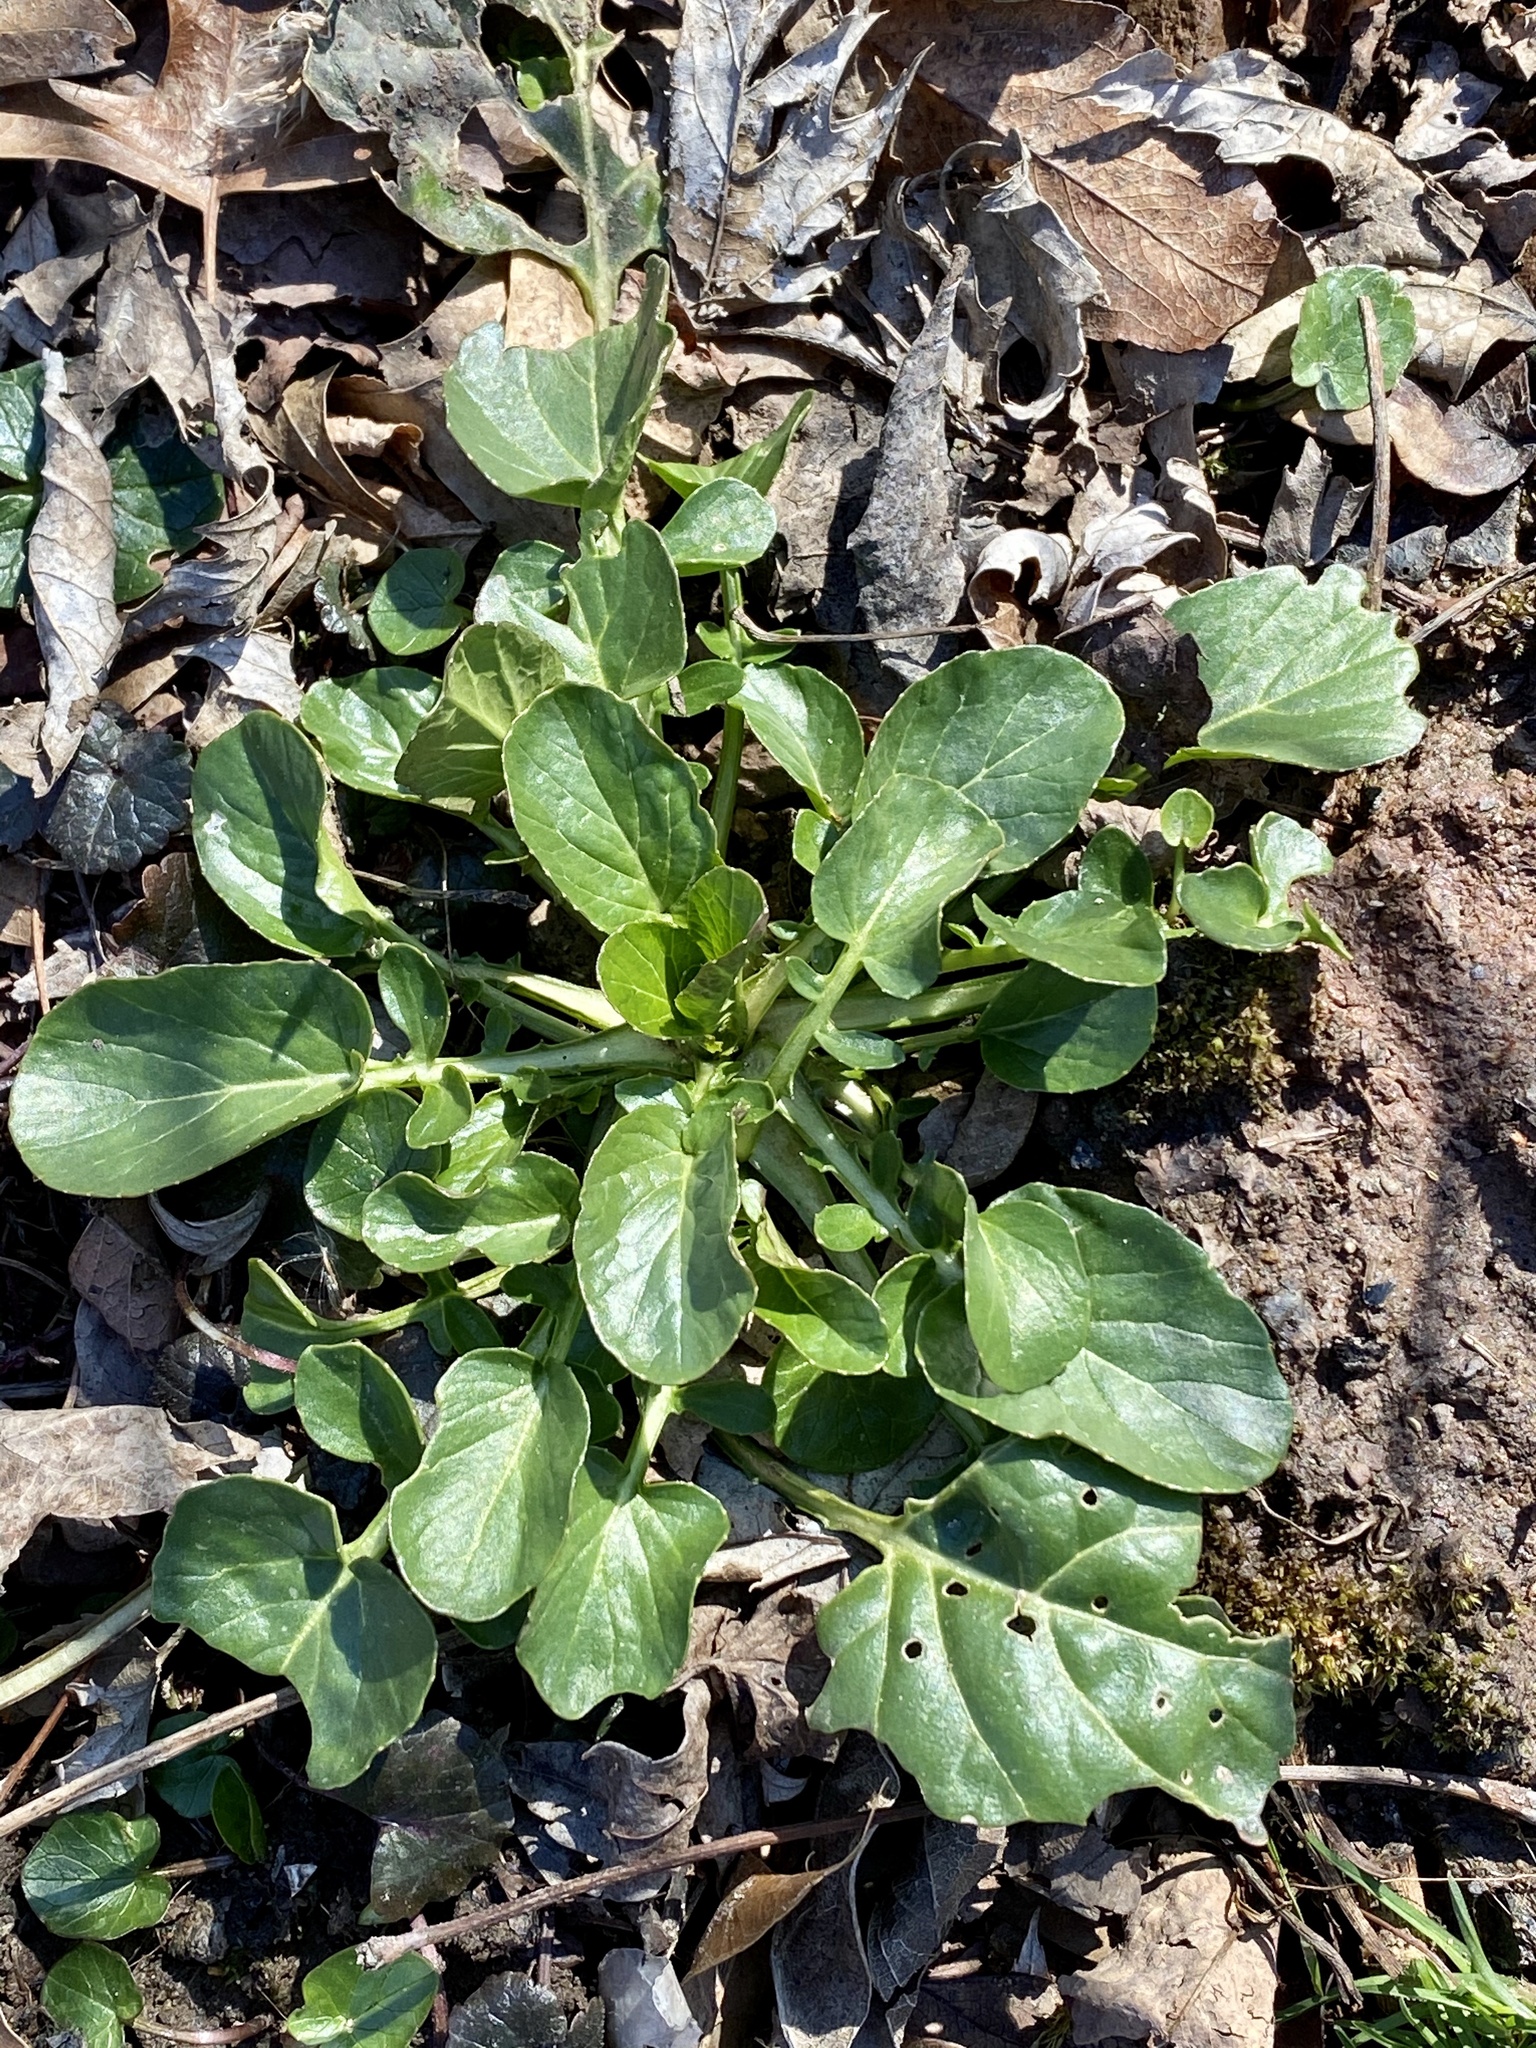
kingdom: Plantae
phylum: Tracheophyta
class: Magnoliopsida
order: Brassicales
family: Brassicaceae
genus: Barbarea
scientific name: Barbarea vulgaris
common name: Cressy-greens
